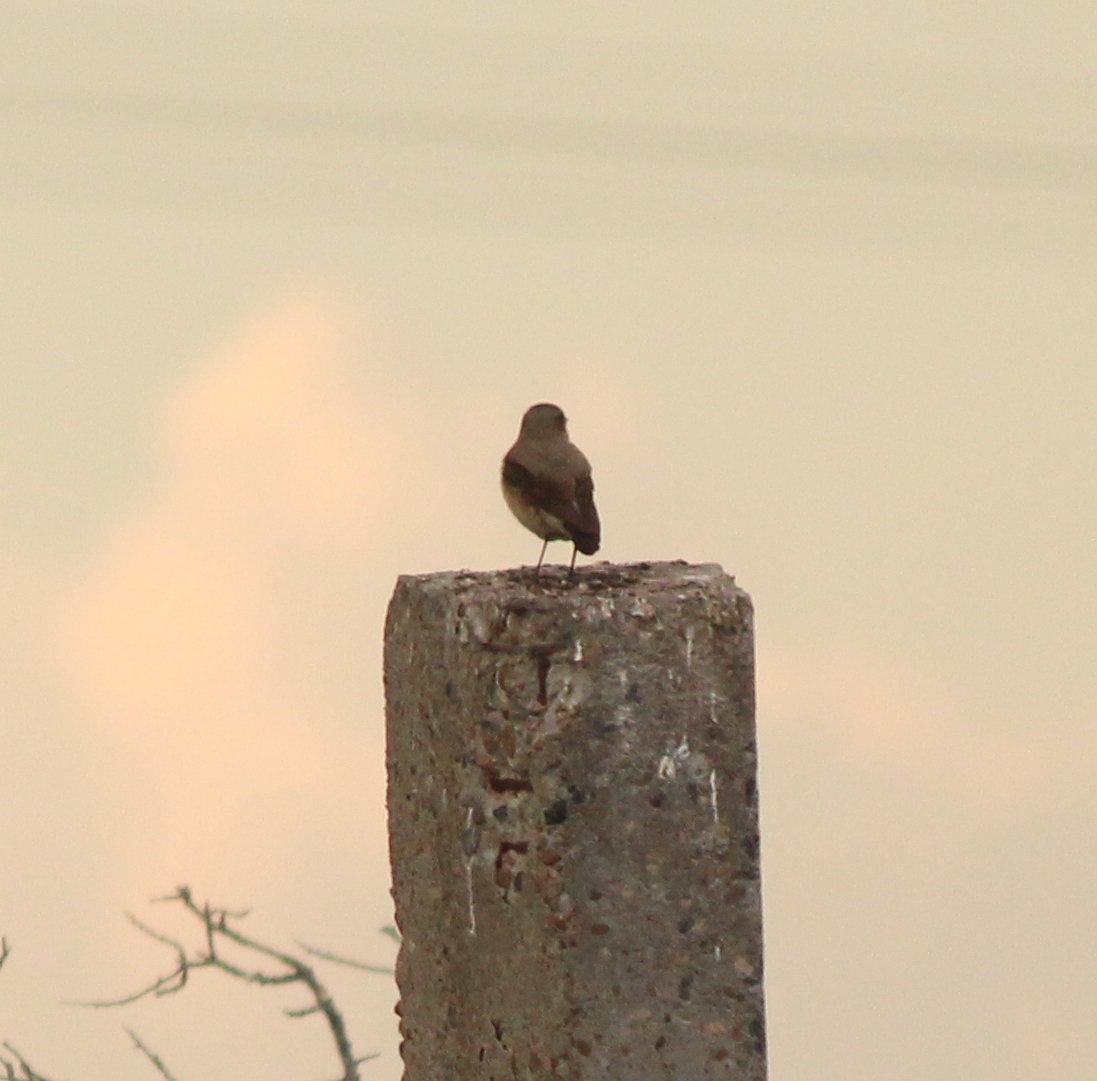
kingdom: Animalia
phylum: Chordata
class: Aves
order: Passeriformes
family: Muscicapidae
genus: Oenanthe
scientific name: Oenanthe oenanthe
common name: Northern wheatear
